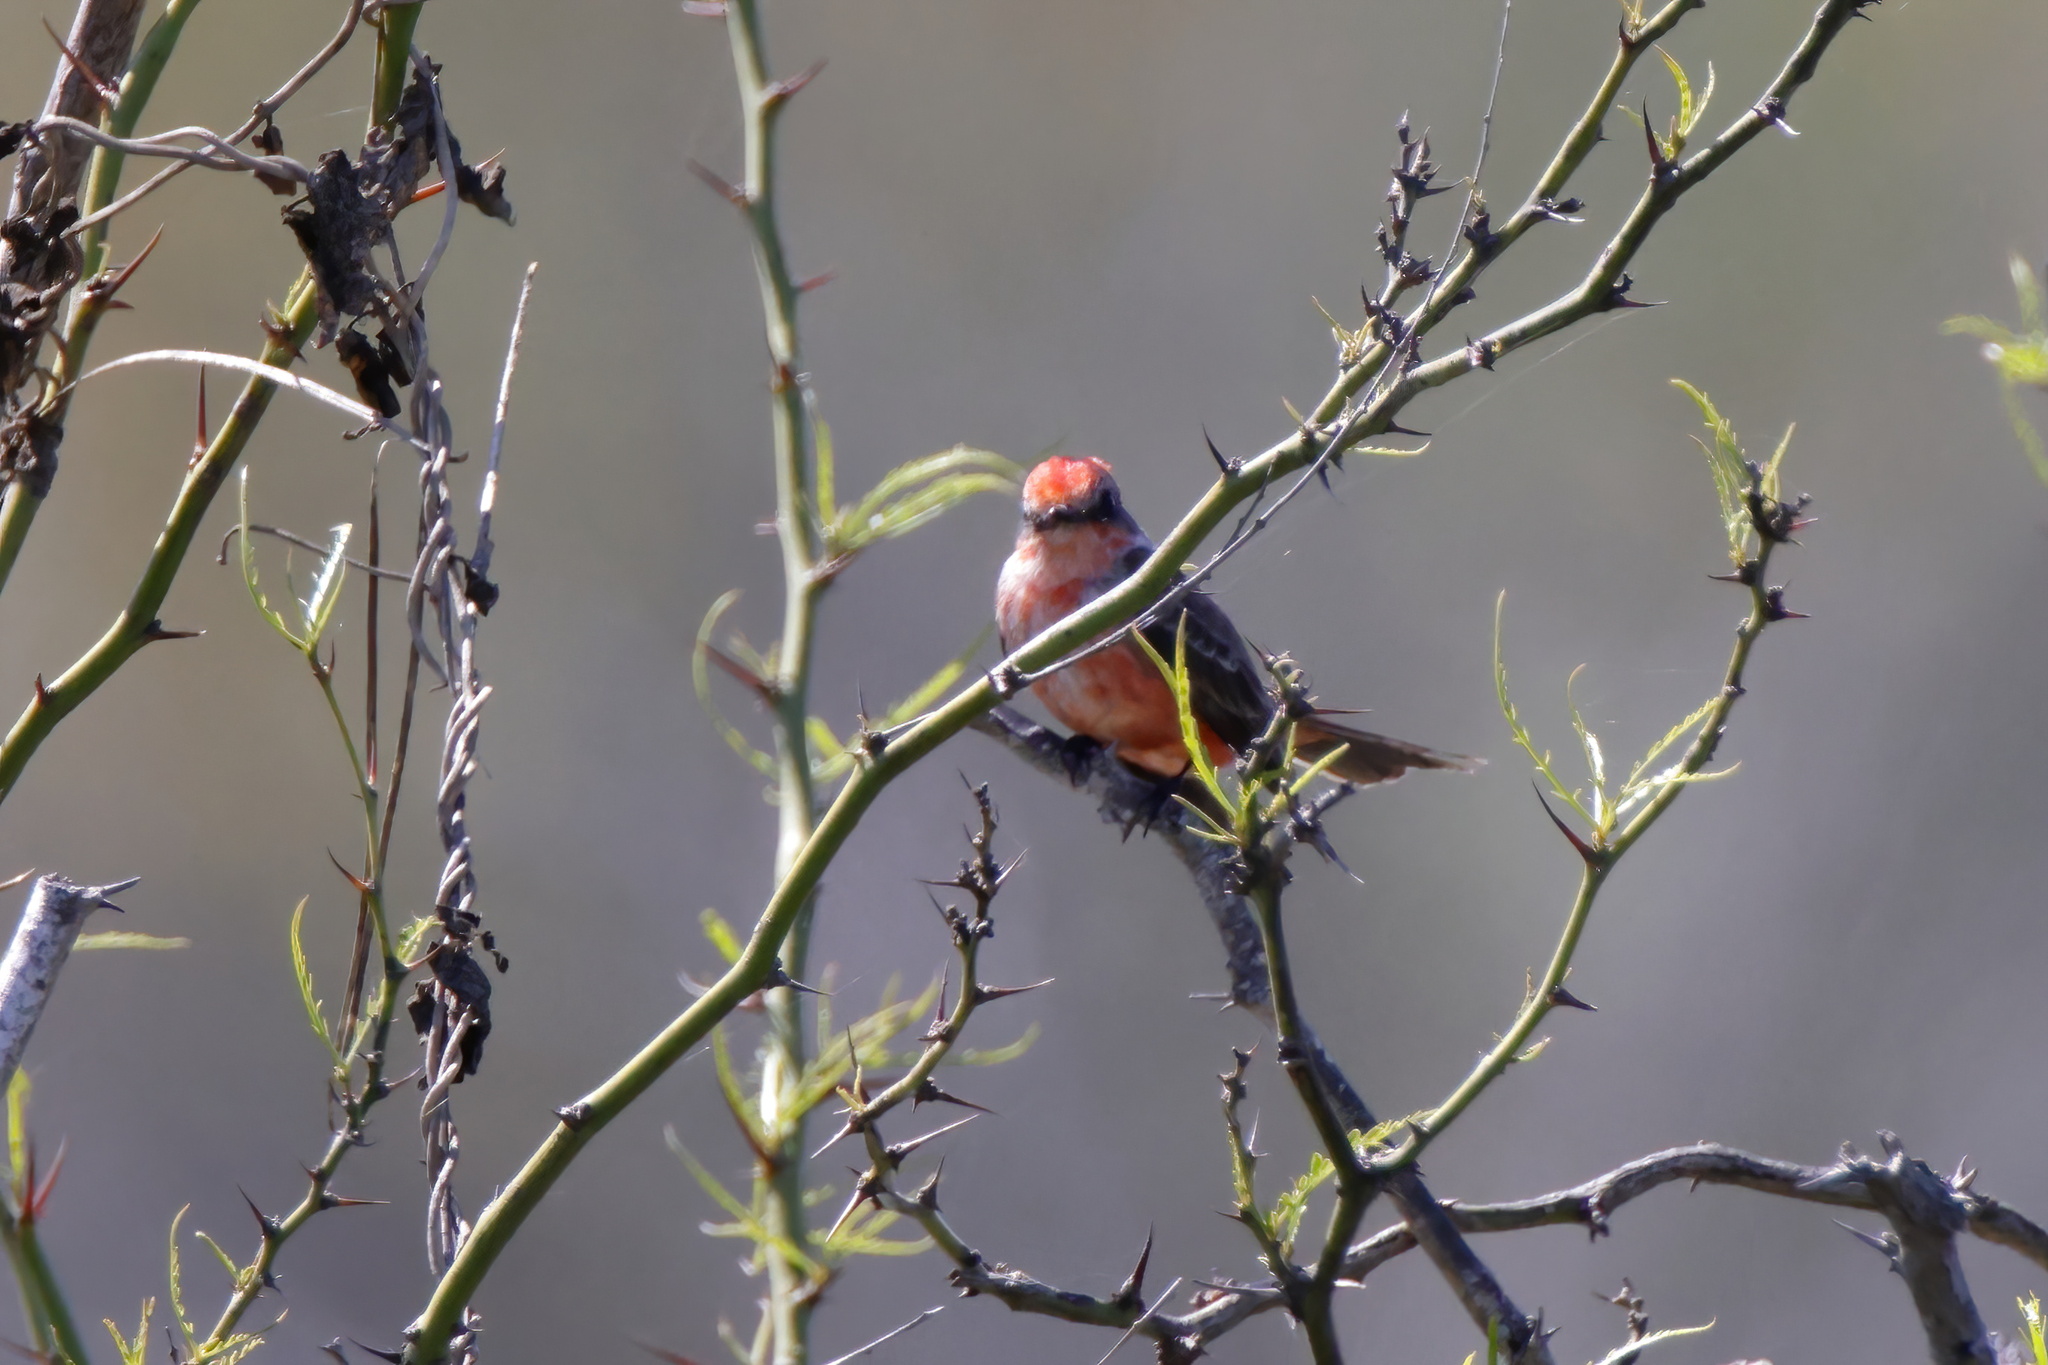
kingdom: Animalia
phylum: Chordata
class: Aves
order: Passeriformes
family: Tyrannidae
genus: Pyrocephalus
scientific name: Pyrocephalus rubinus
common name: Vermilion flycatcher
